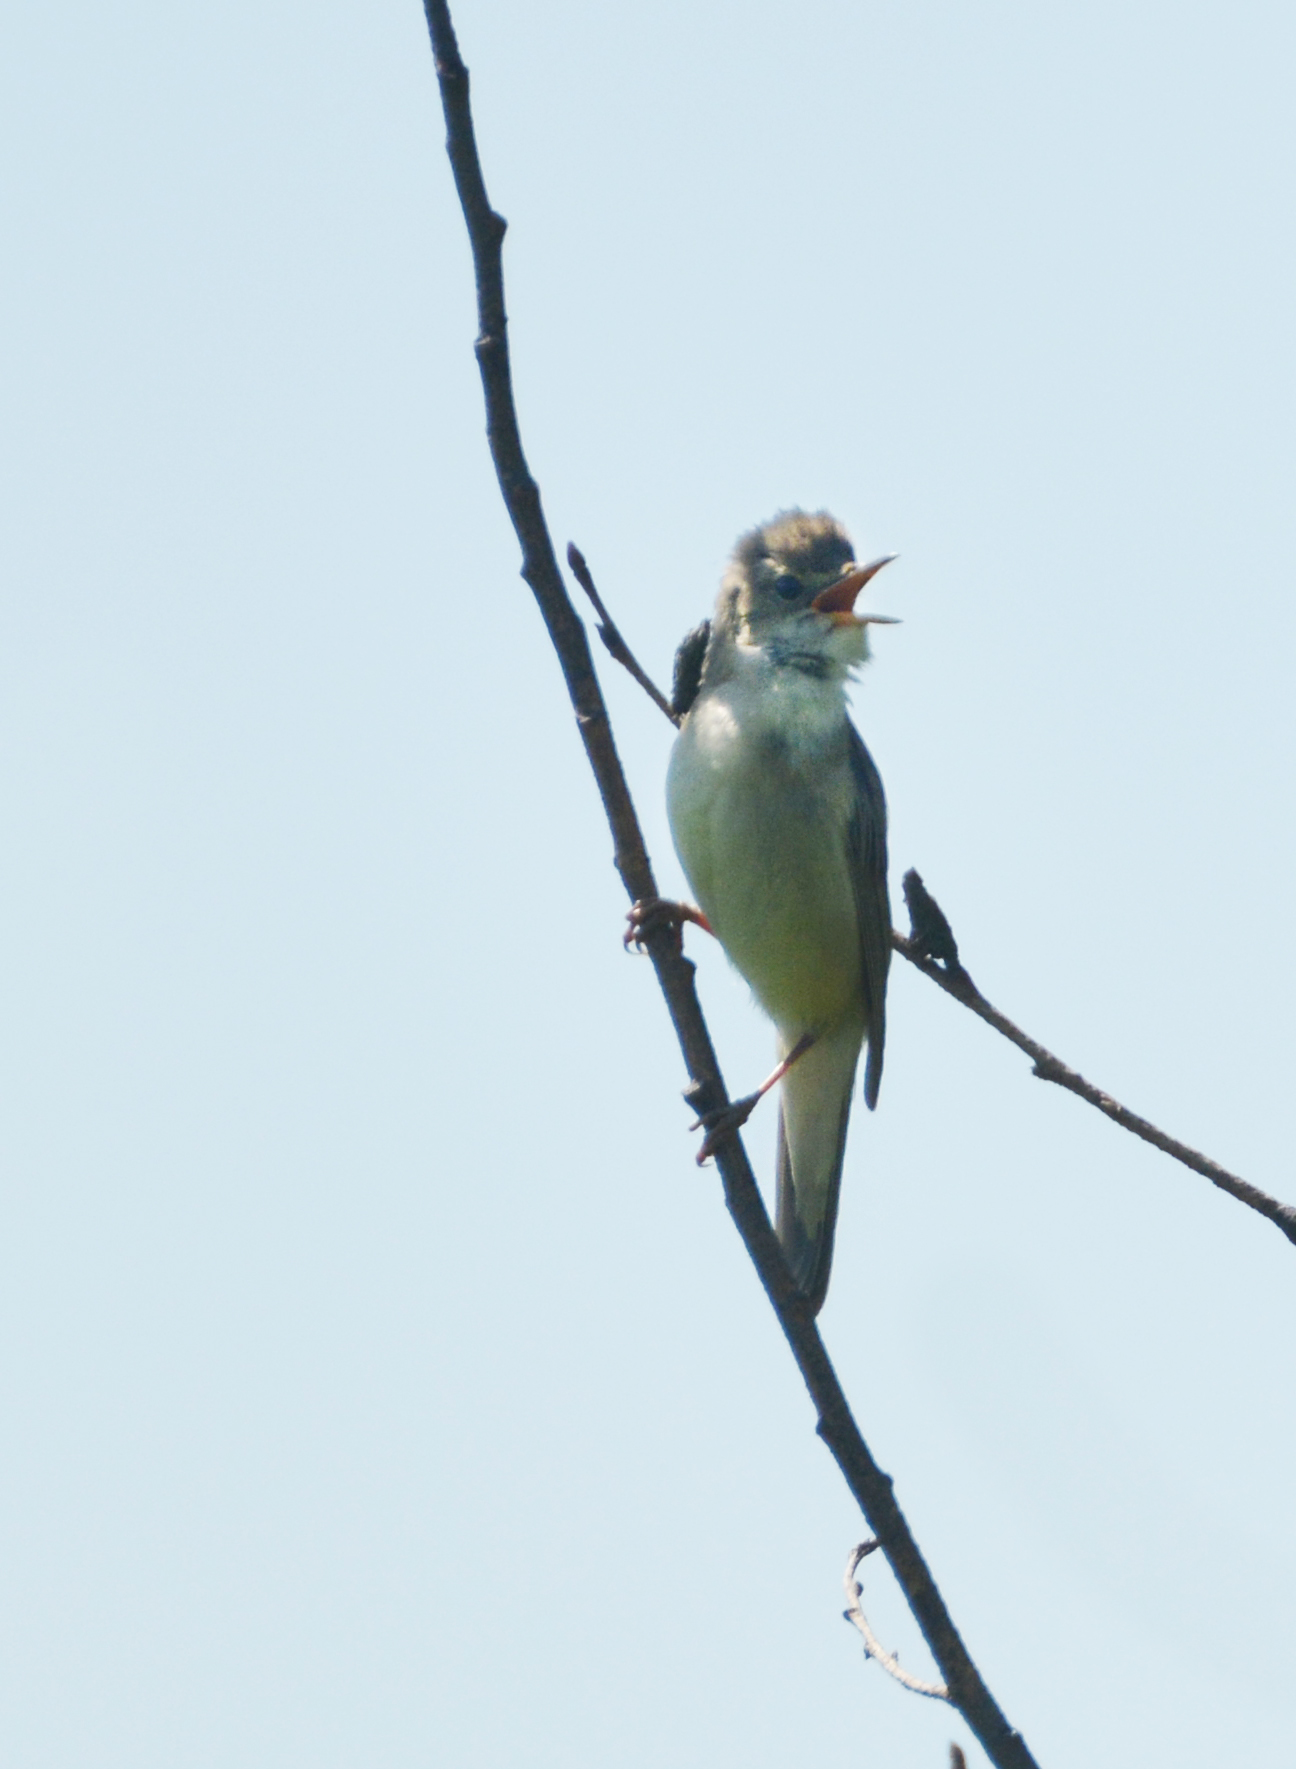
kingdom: Animalia
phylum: Chordata
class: Aves
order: Passeriformes
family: Acrocephalidae
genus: Acrocephalus
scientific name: Acrocephalus palustris
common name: Marsh warbler
